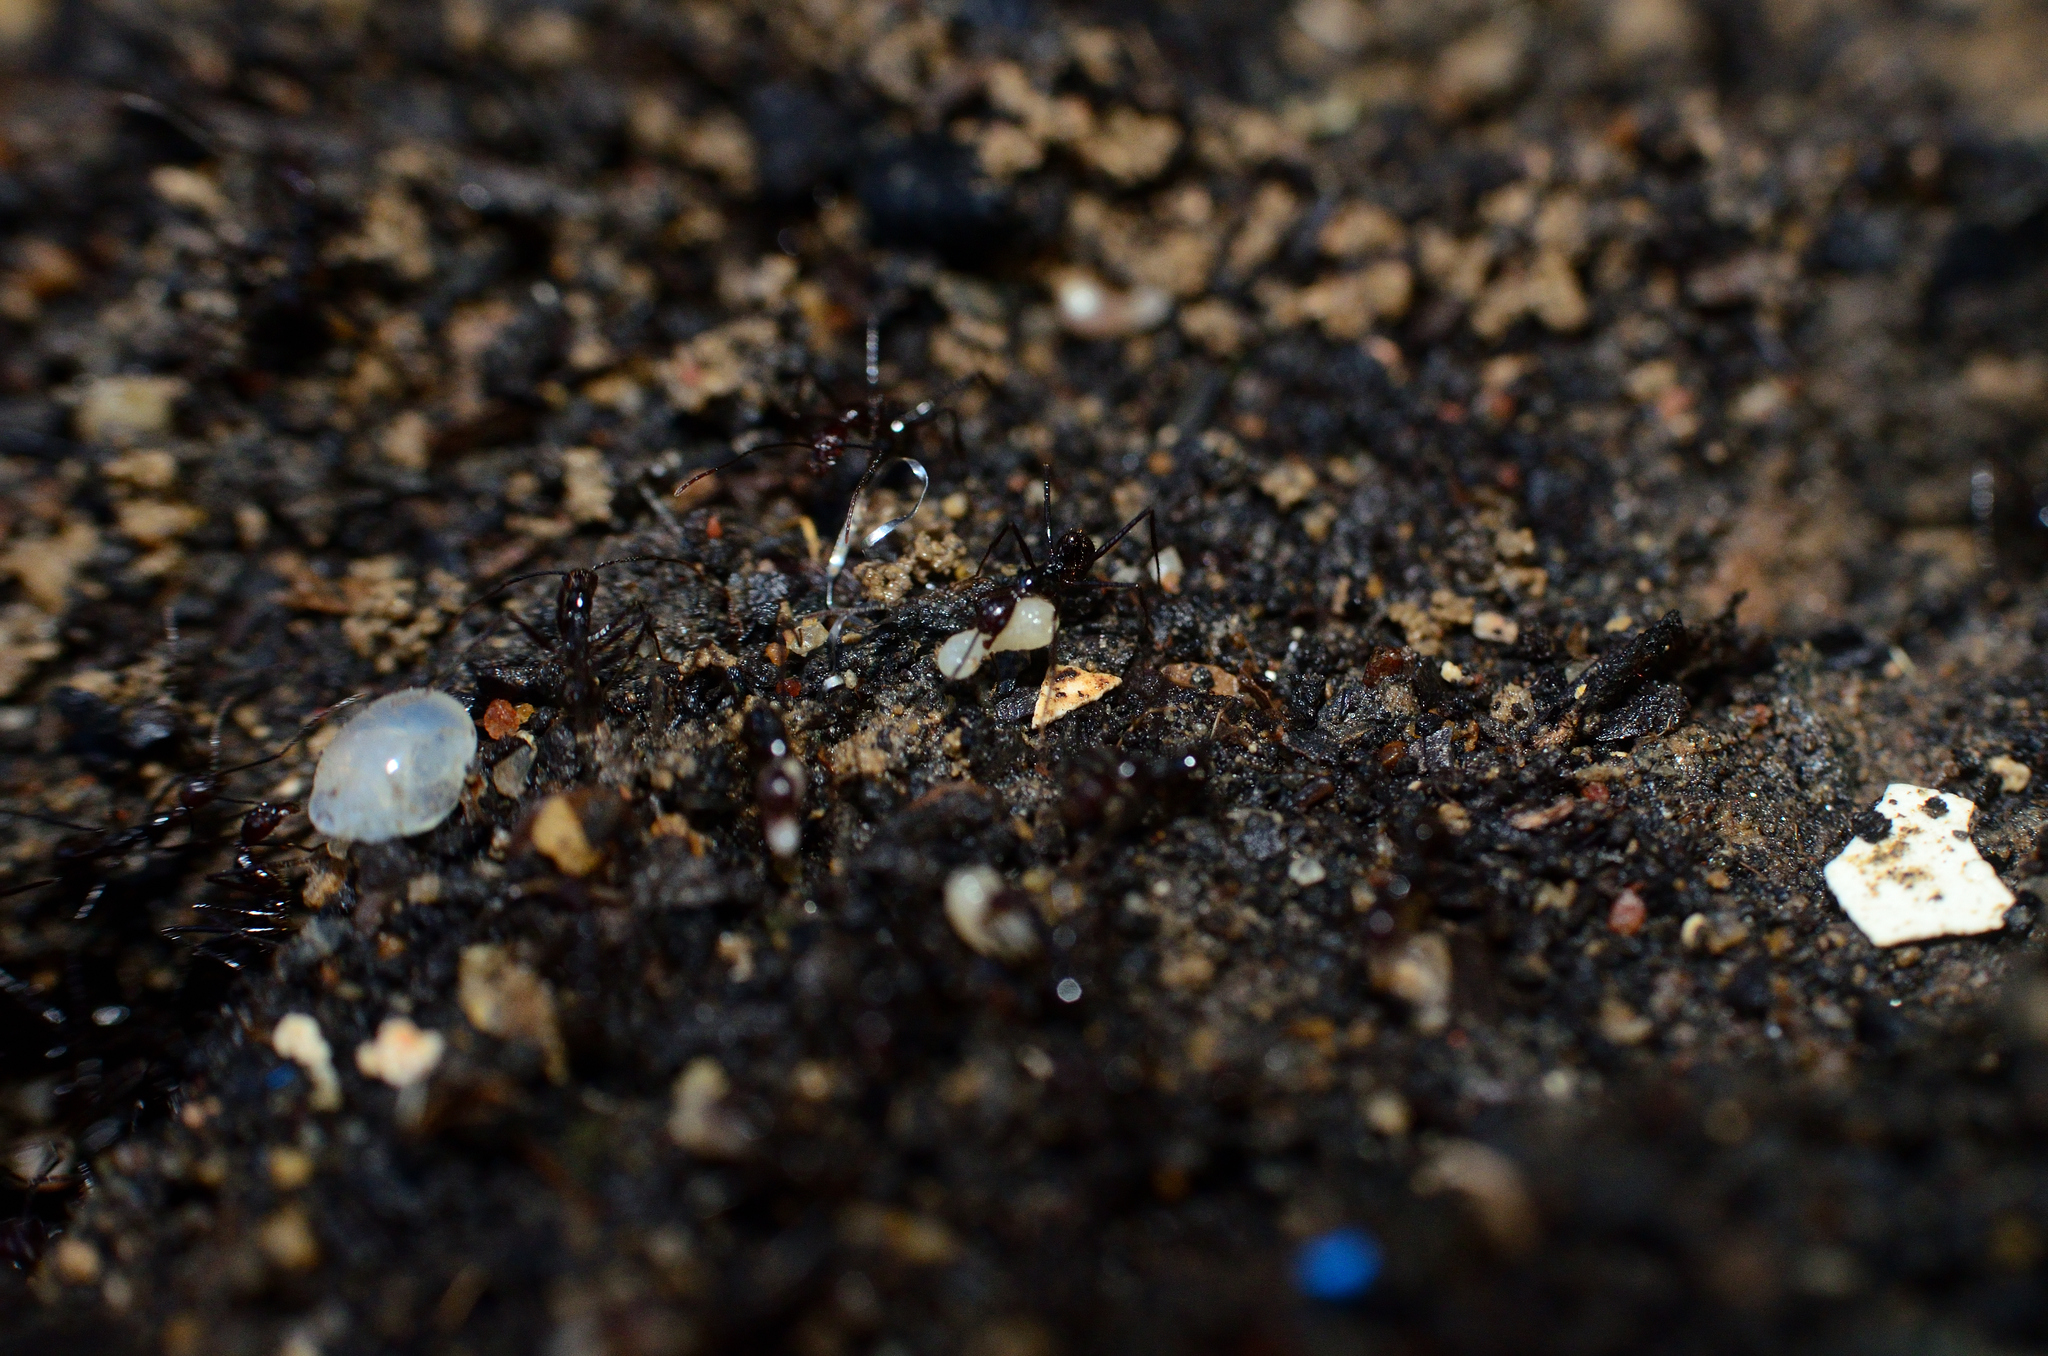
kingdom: Animalia
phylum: Arthropoda
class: Insecta
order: Hymenoptera
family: Formicidae
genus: Aphaenogaster
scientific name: Aphaenogaster beccarii
